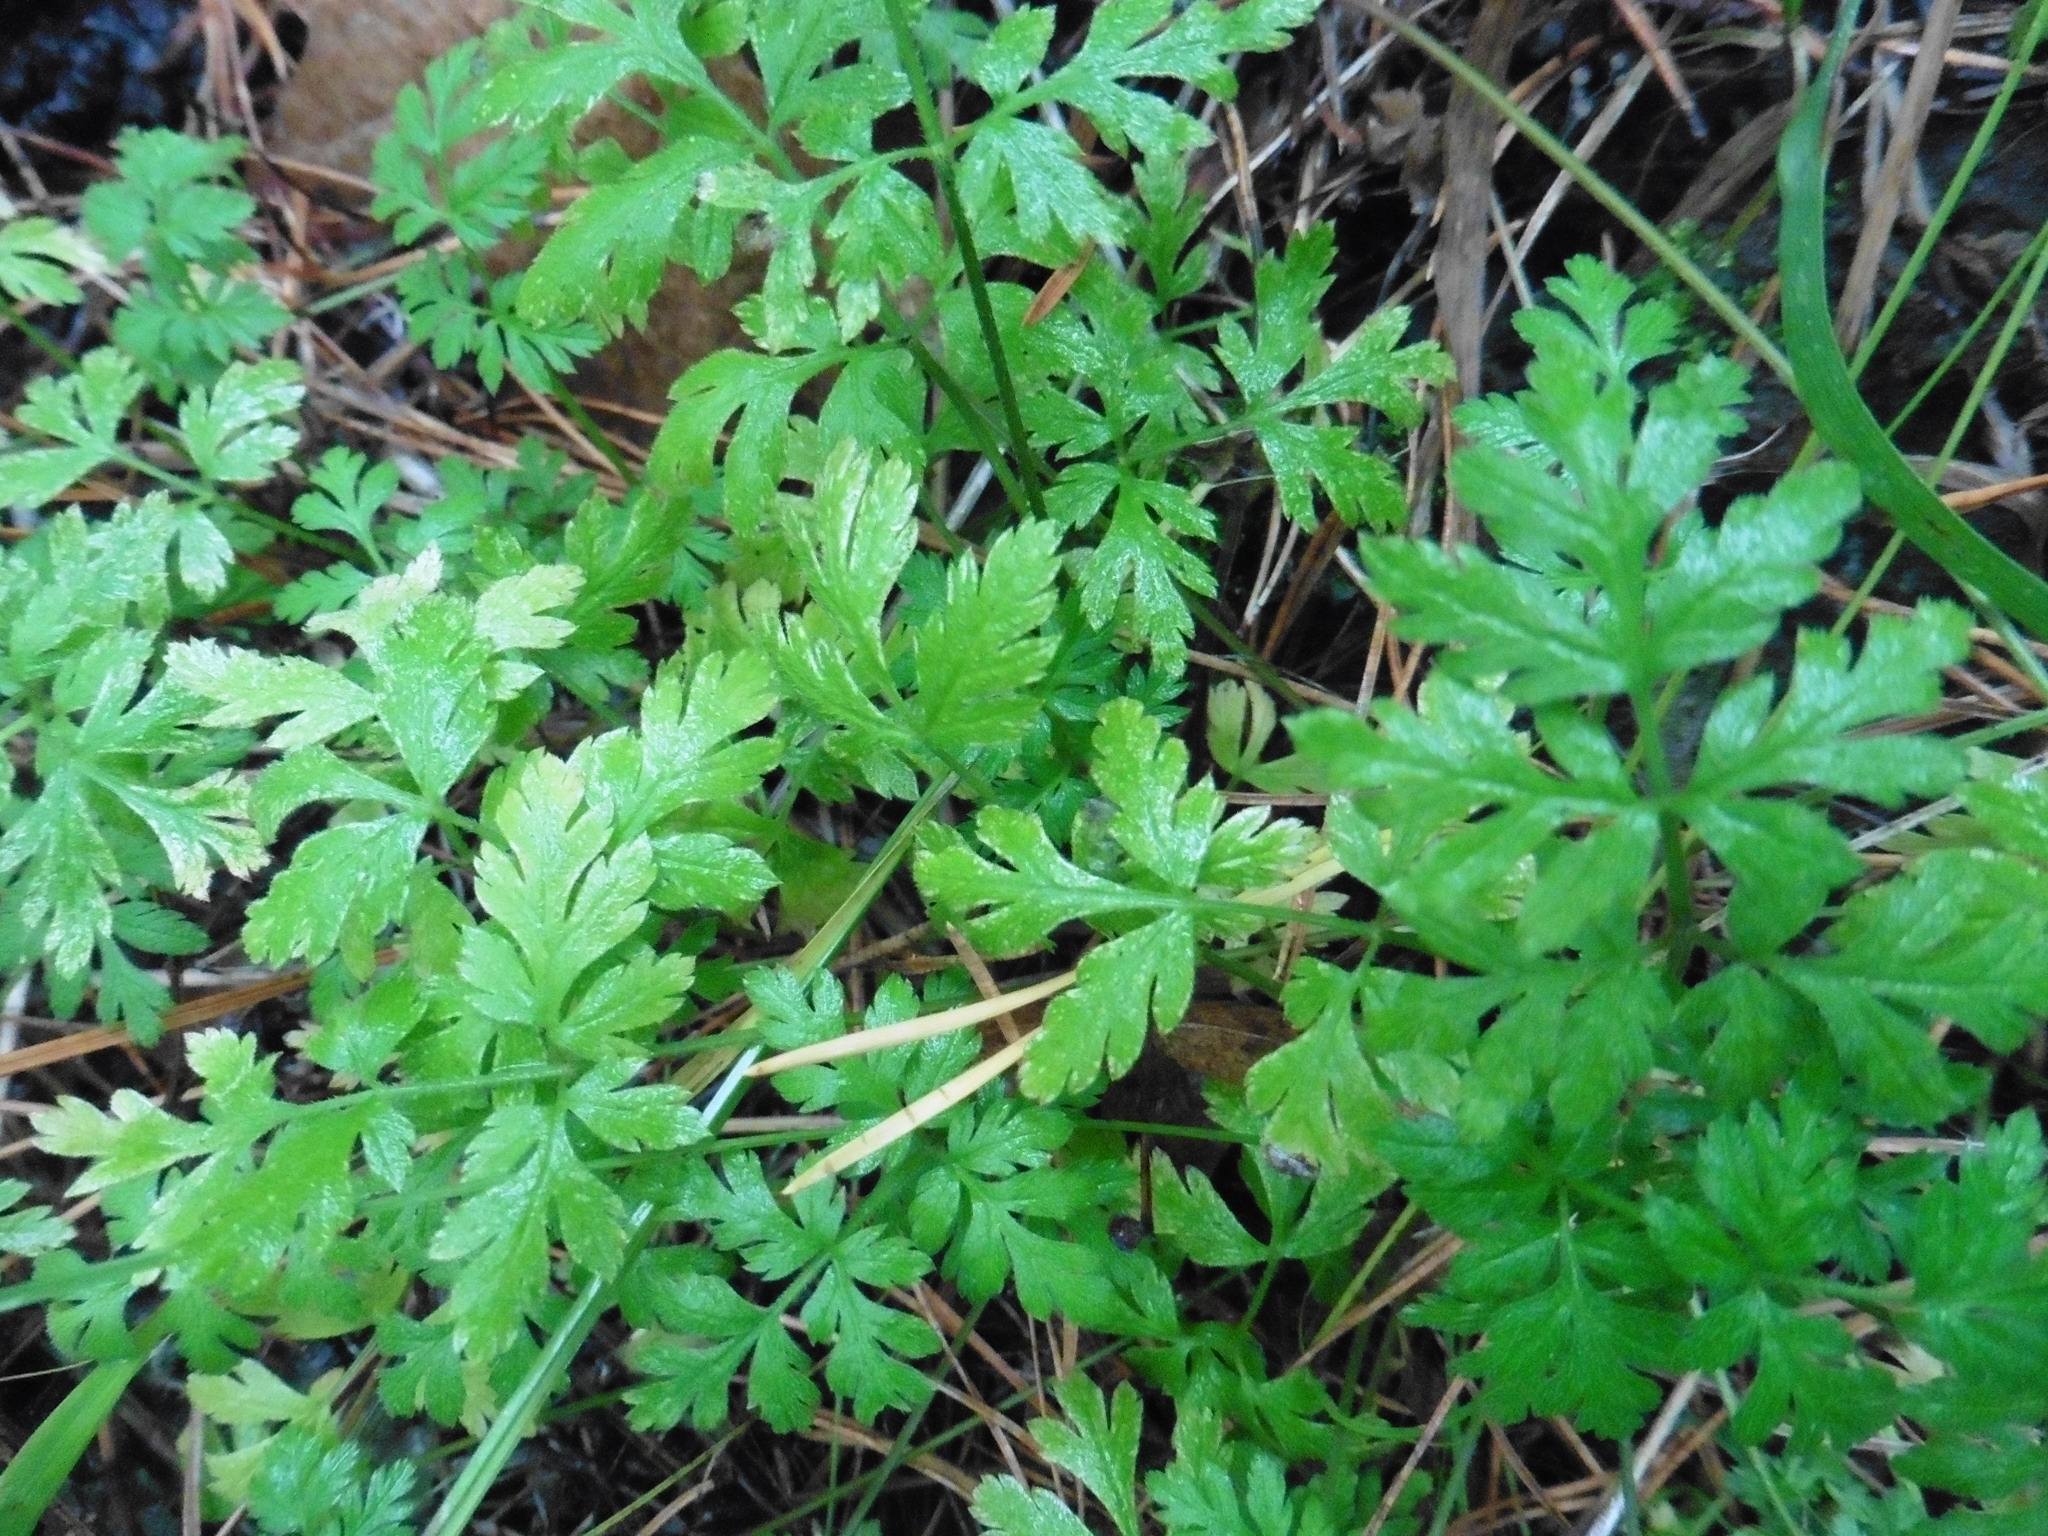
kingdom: Plantae
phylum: Tracheophyta
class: Magnoliopsida
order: Apiales
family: Apiaceae
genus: Torilis
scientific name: Torilis japonica
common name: Upright hedge-parsley
